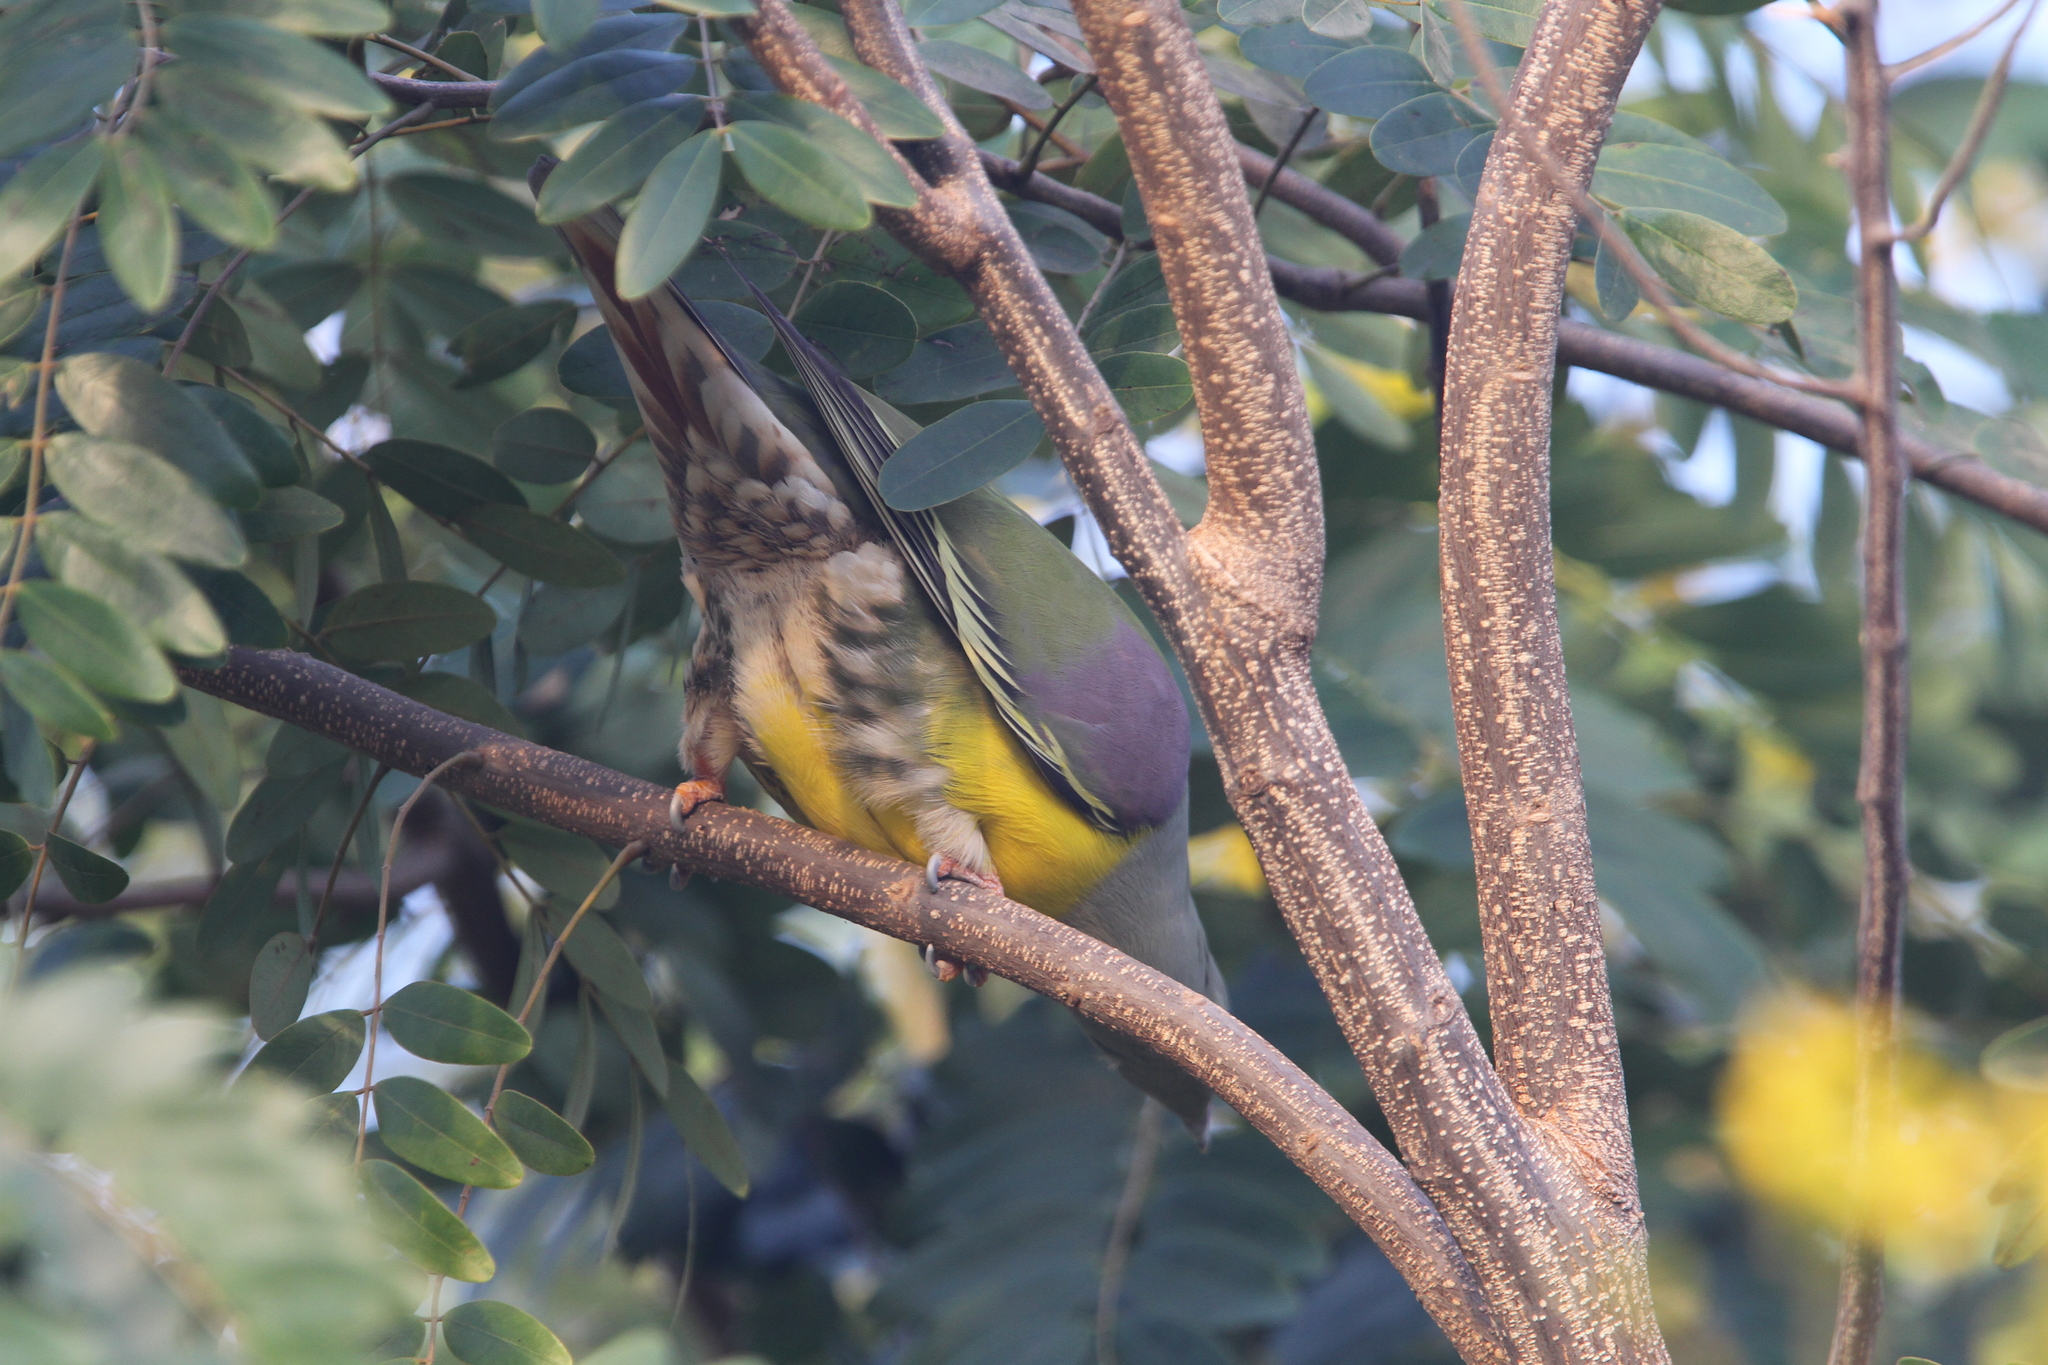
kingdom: Animalia
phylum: Chordata
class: Aves
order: Columbiformes
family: Columbidae
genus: Treron
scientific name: Treron waalia
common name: Bruce's green pigeon
